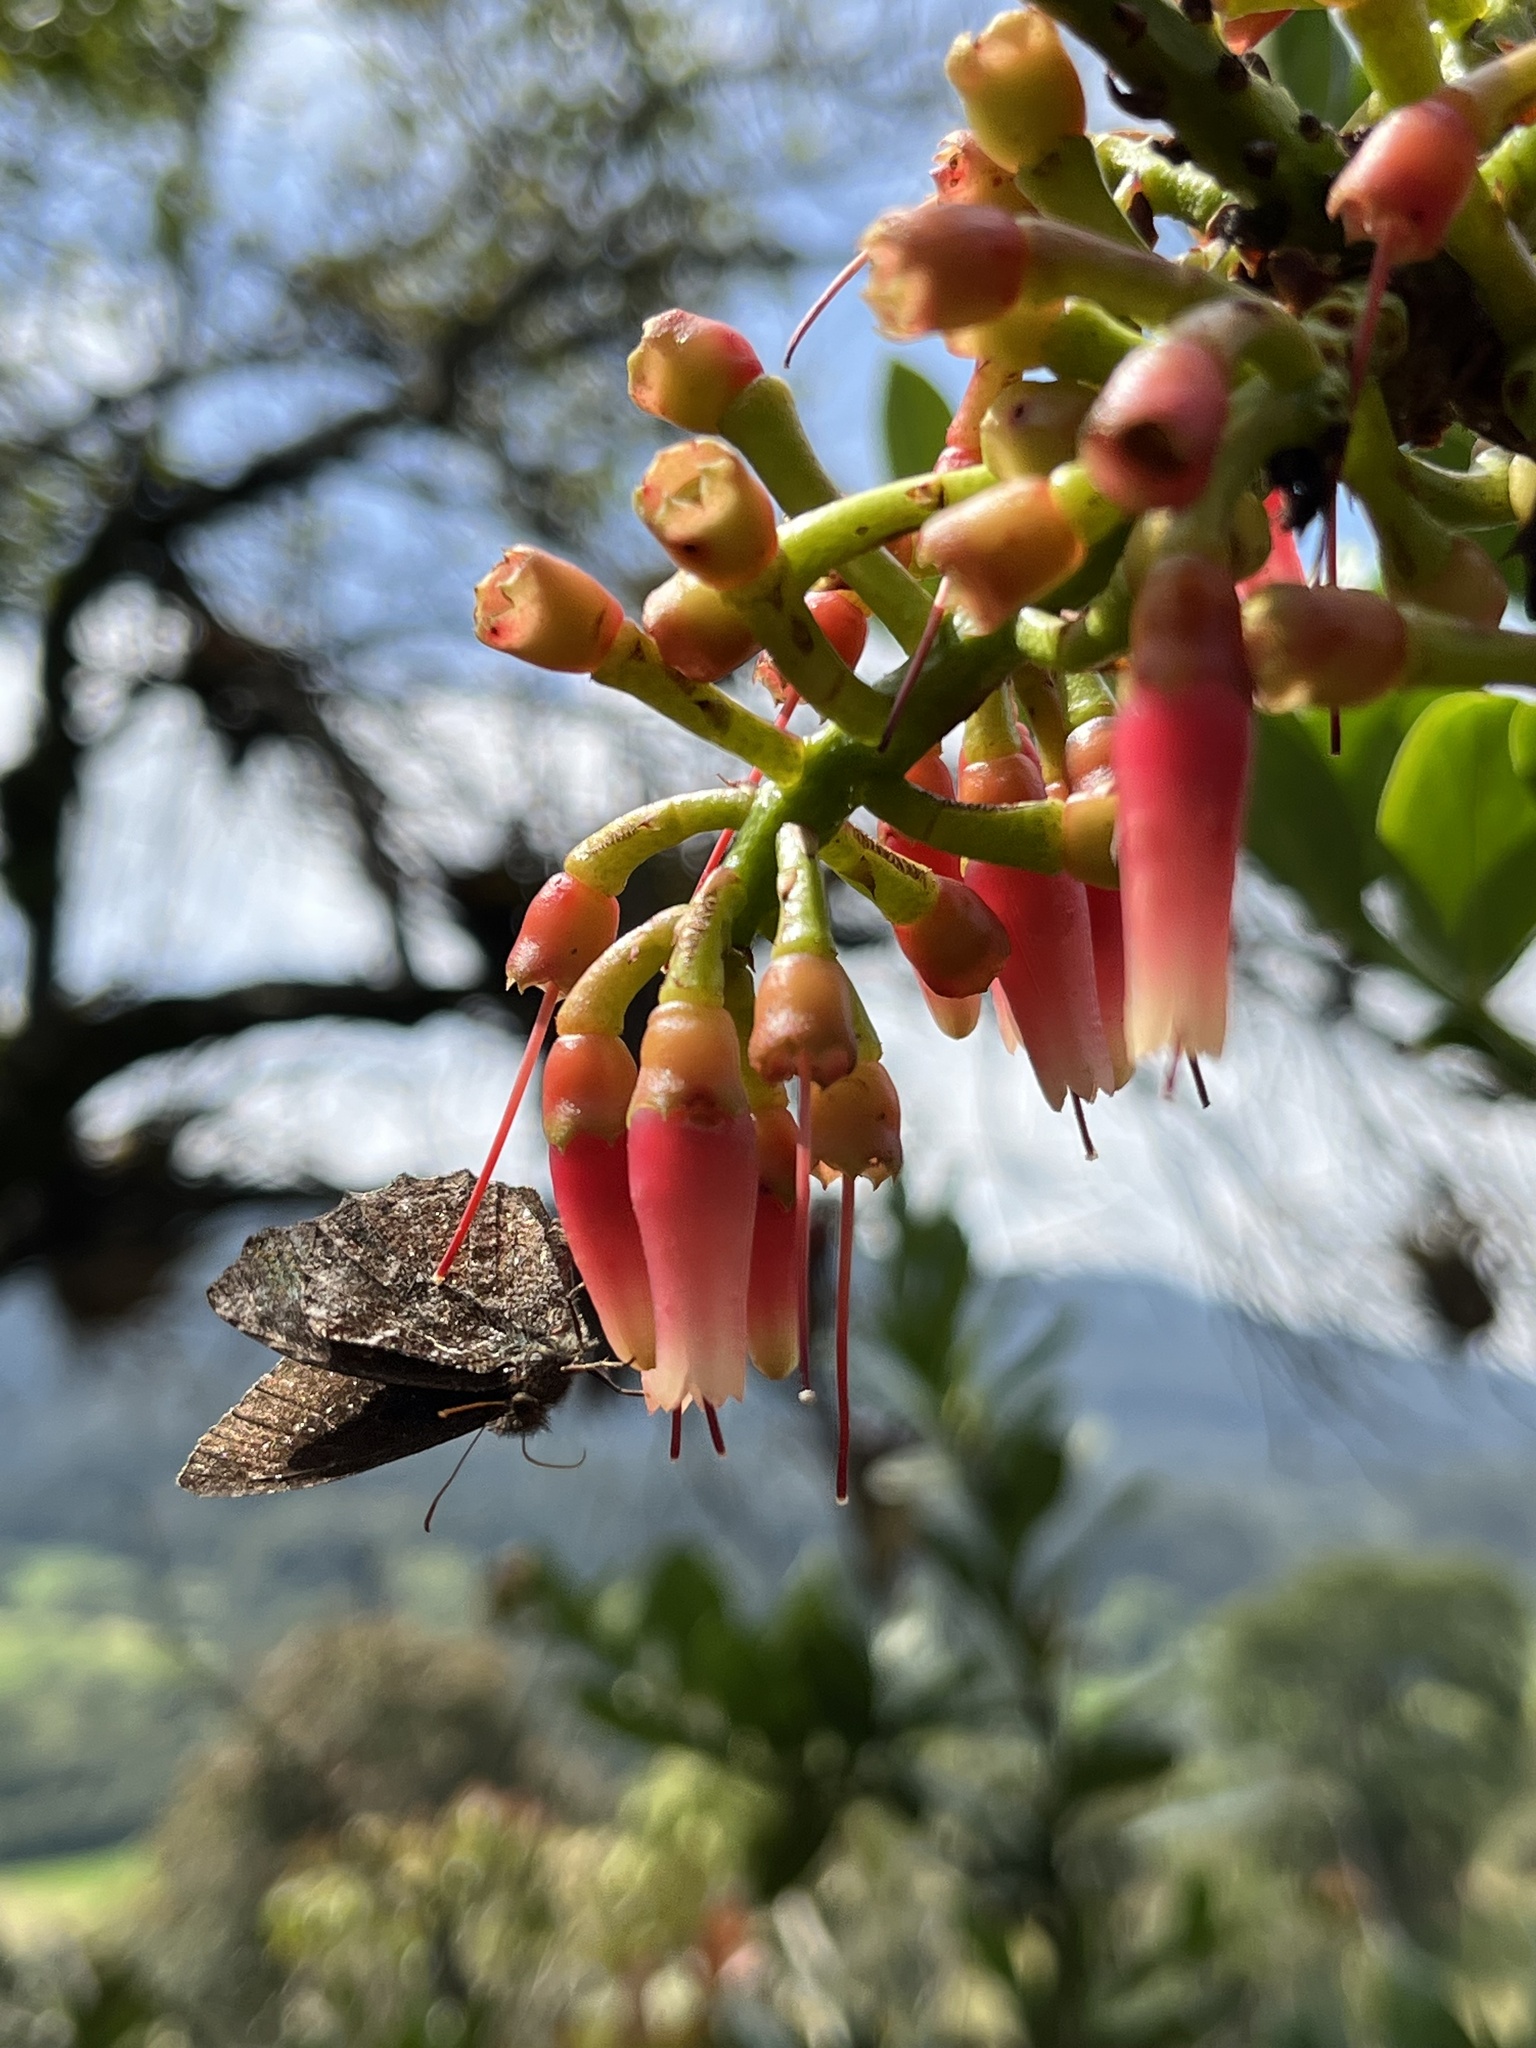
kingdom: Animalia
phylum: Arthropoda
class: Insecta
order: Lepidoptera
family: Nymphalidae
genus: Panyapedaliodes
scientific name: Panyapedaliodes drymaea
